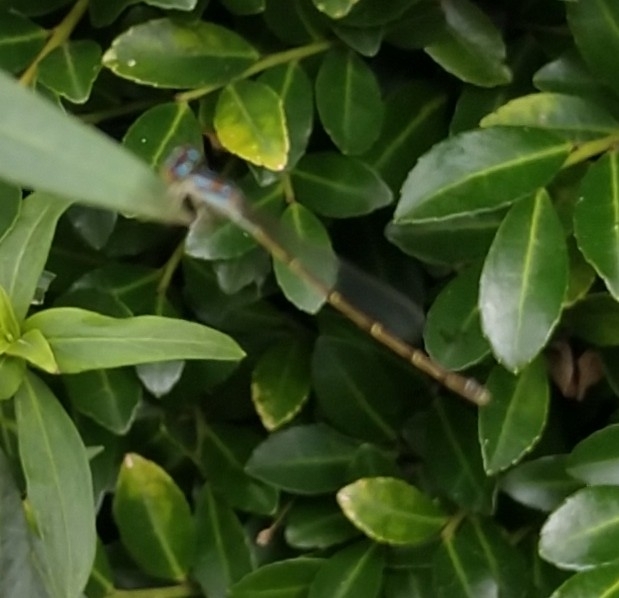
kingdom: Animalia
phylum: Arthropoda
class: Insecta
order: Odonata
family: Coenagrionidae
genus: Ischnura
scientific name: Ischnura posita
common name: Fragile forktail
